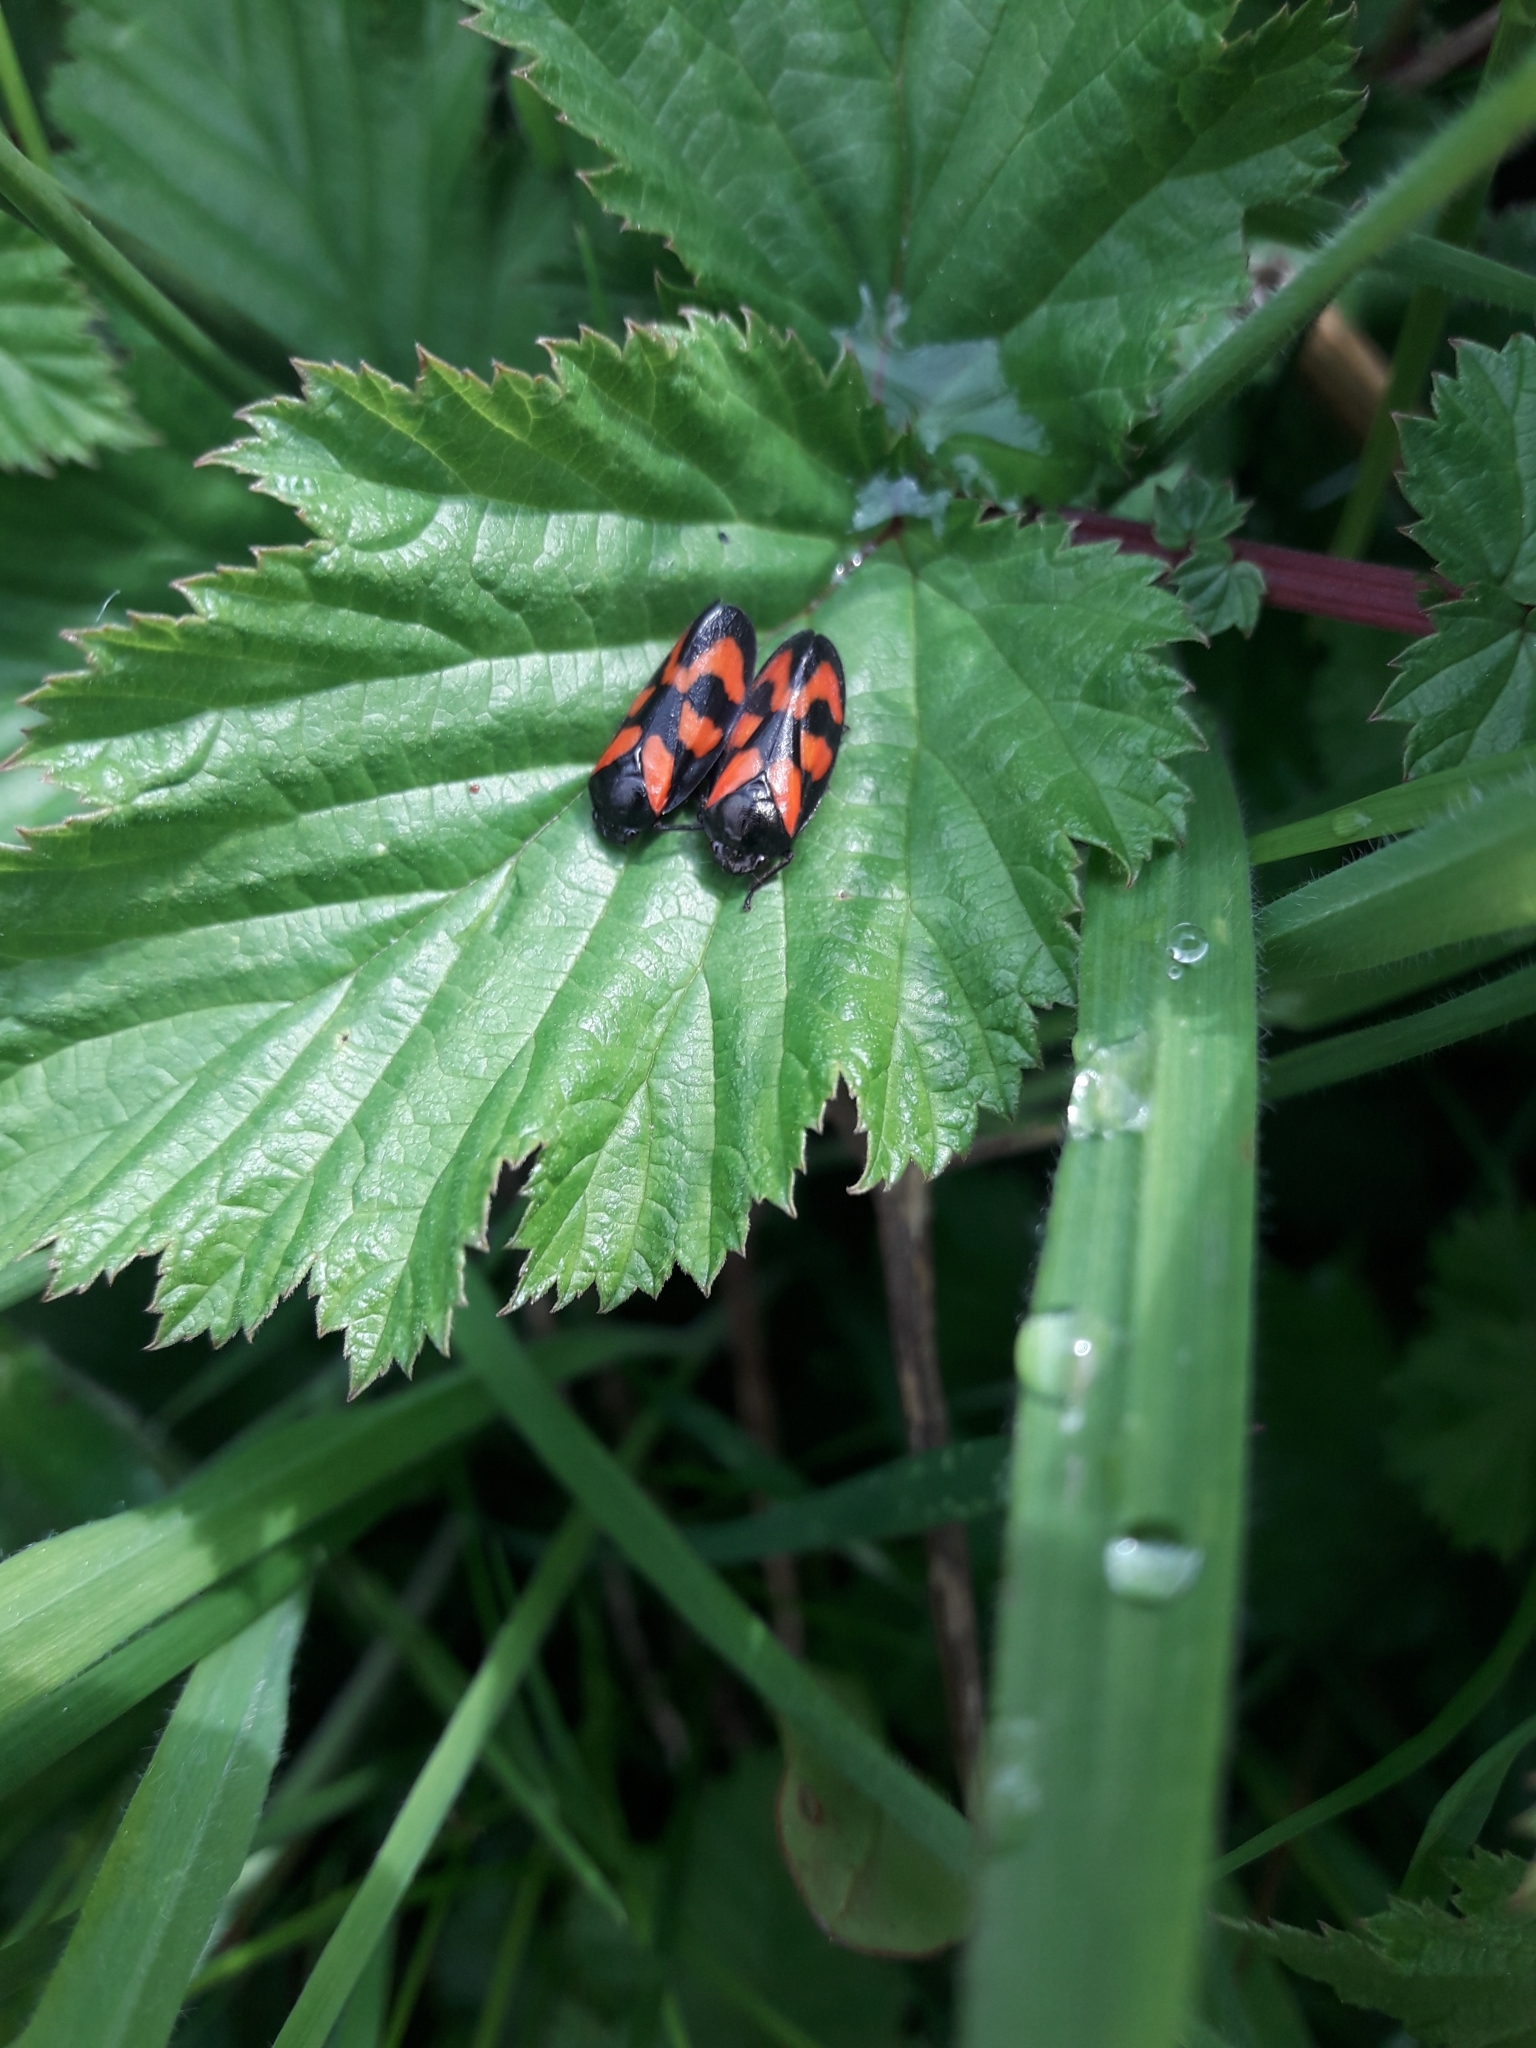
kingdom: Animalia
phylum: Arthropoda
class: Insecta
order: Hemiptera
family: Cercopidae
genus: Cercopis
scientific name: Cercopis vulnerata
